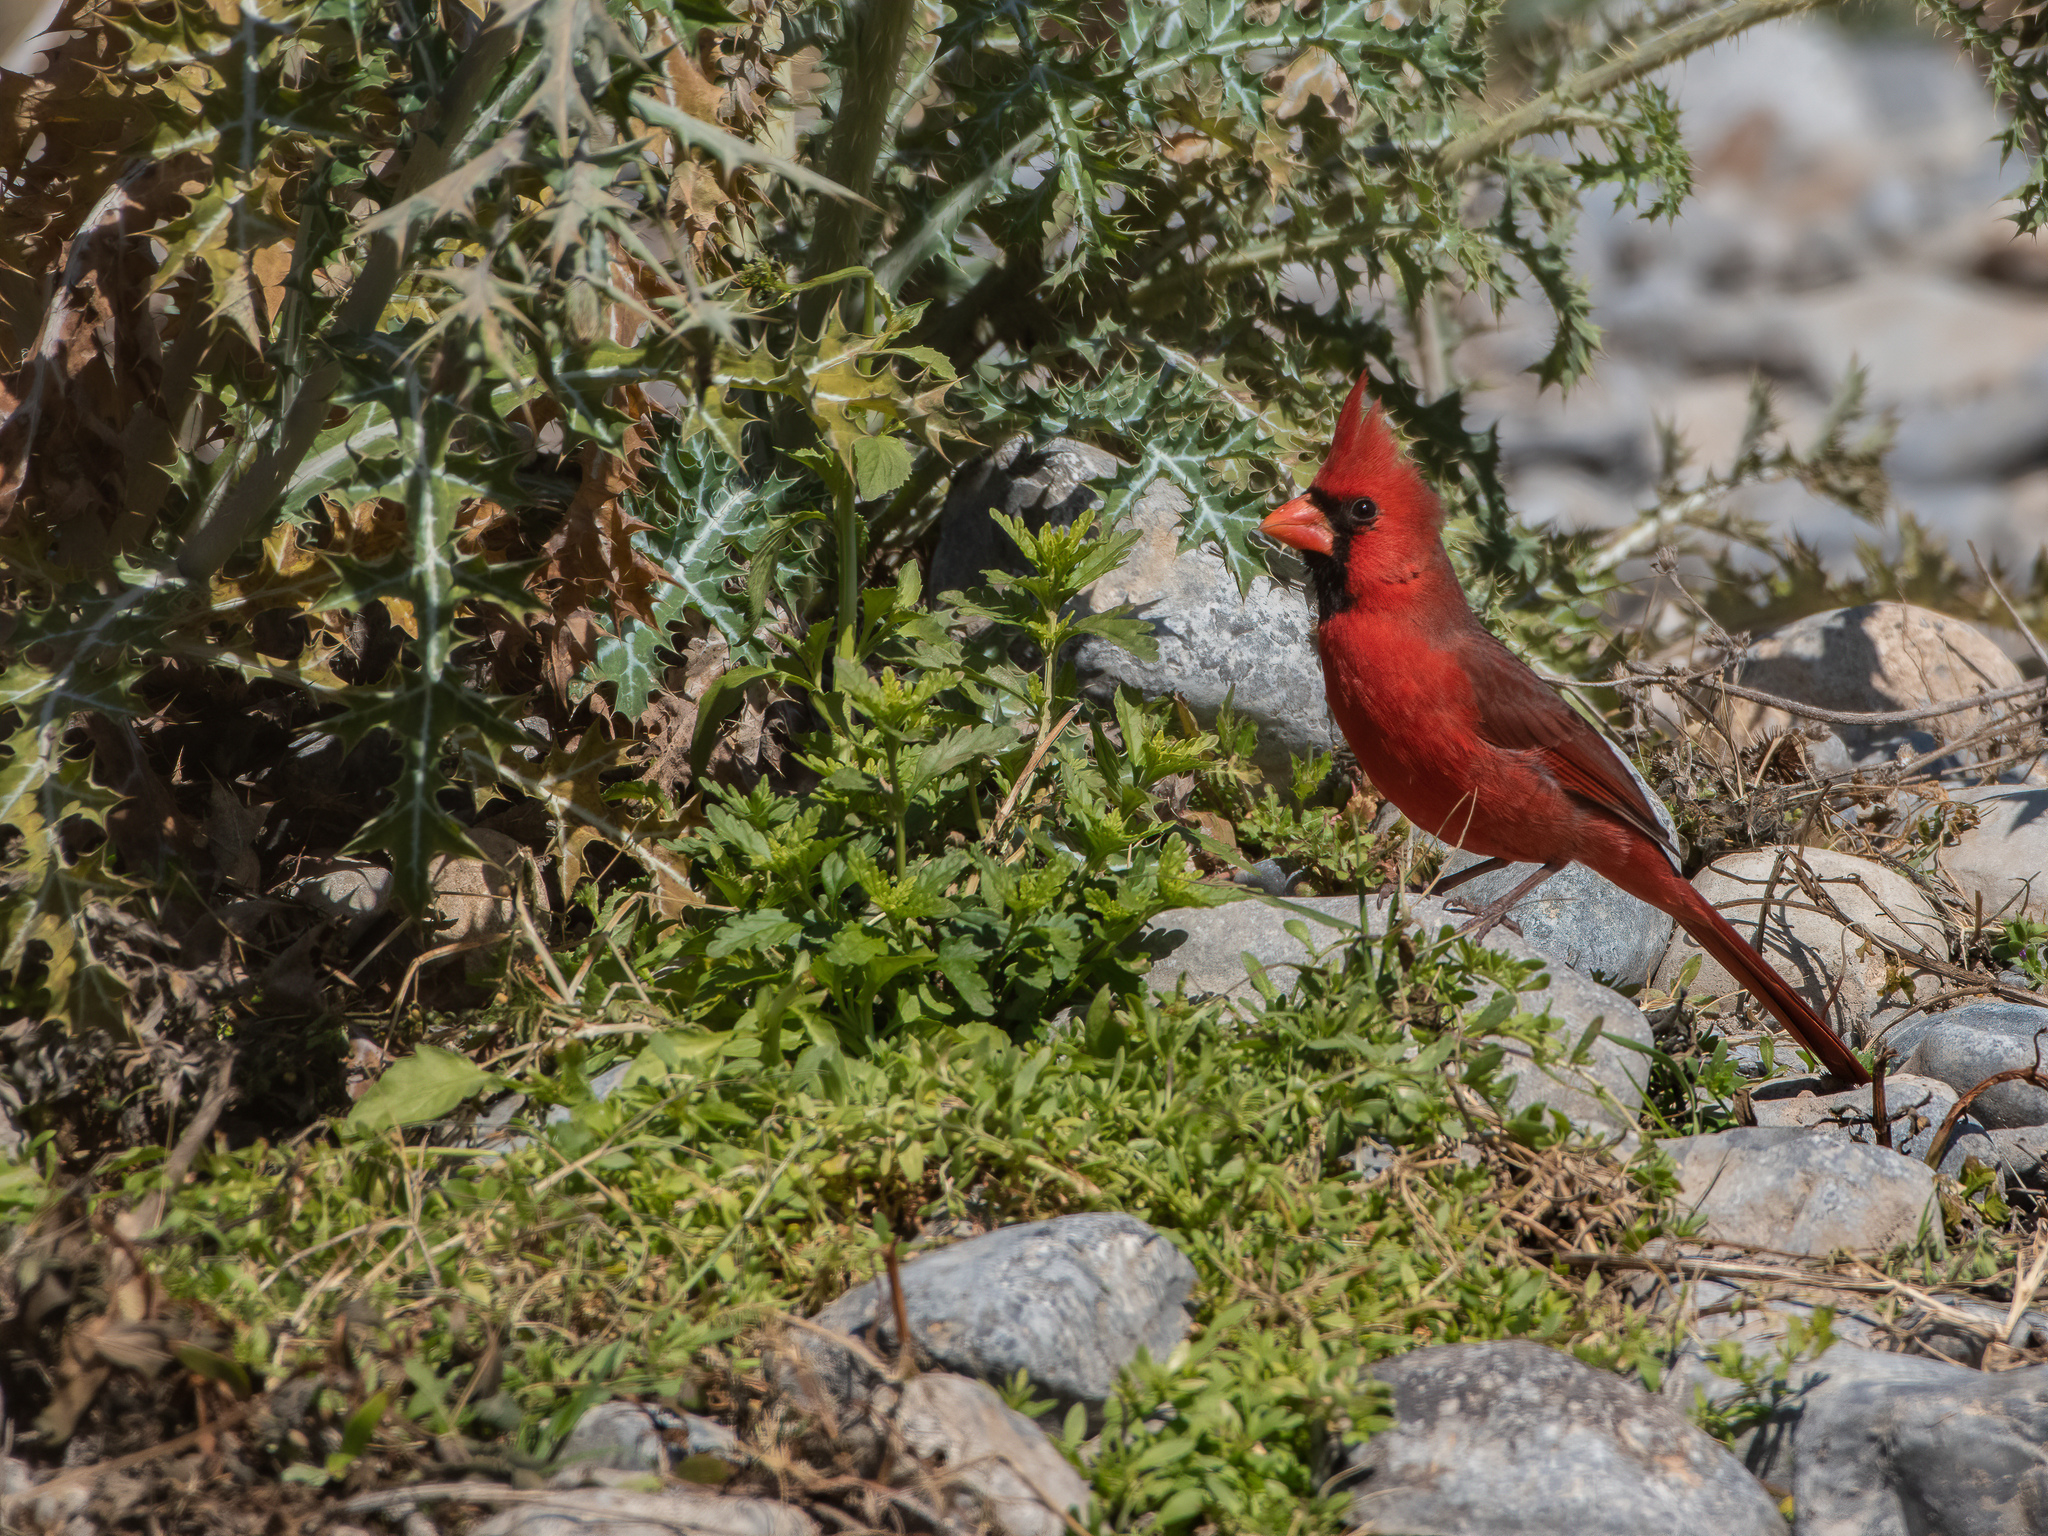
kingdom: Animalia
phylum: Chordata
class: Aves
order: Passeriformes
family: Cardinalidae
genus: Cardinalis
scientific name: Cardinalis cardinalis
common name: Northern cardinal
